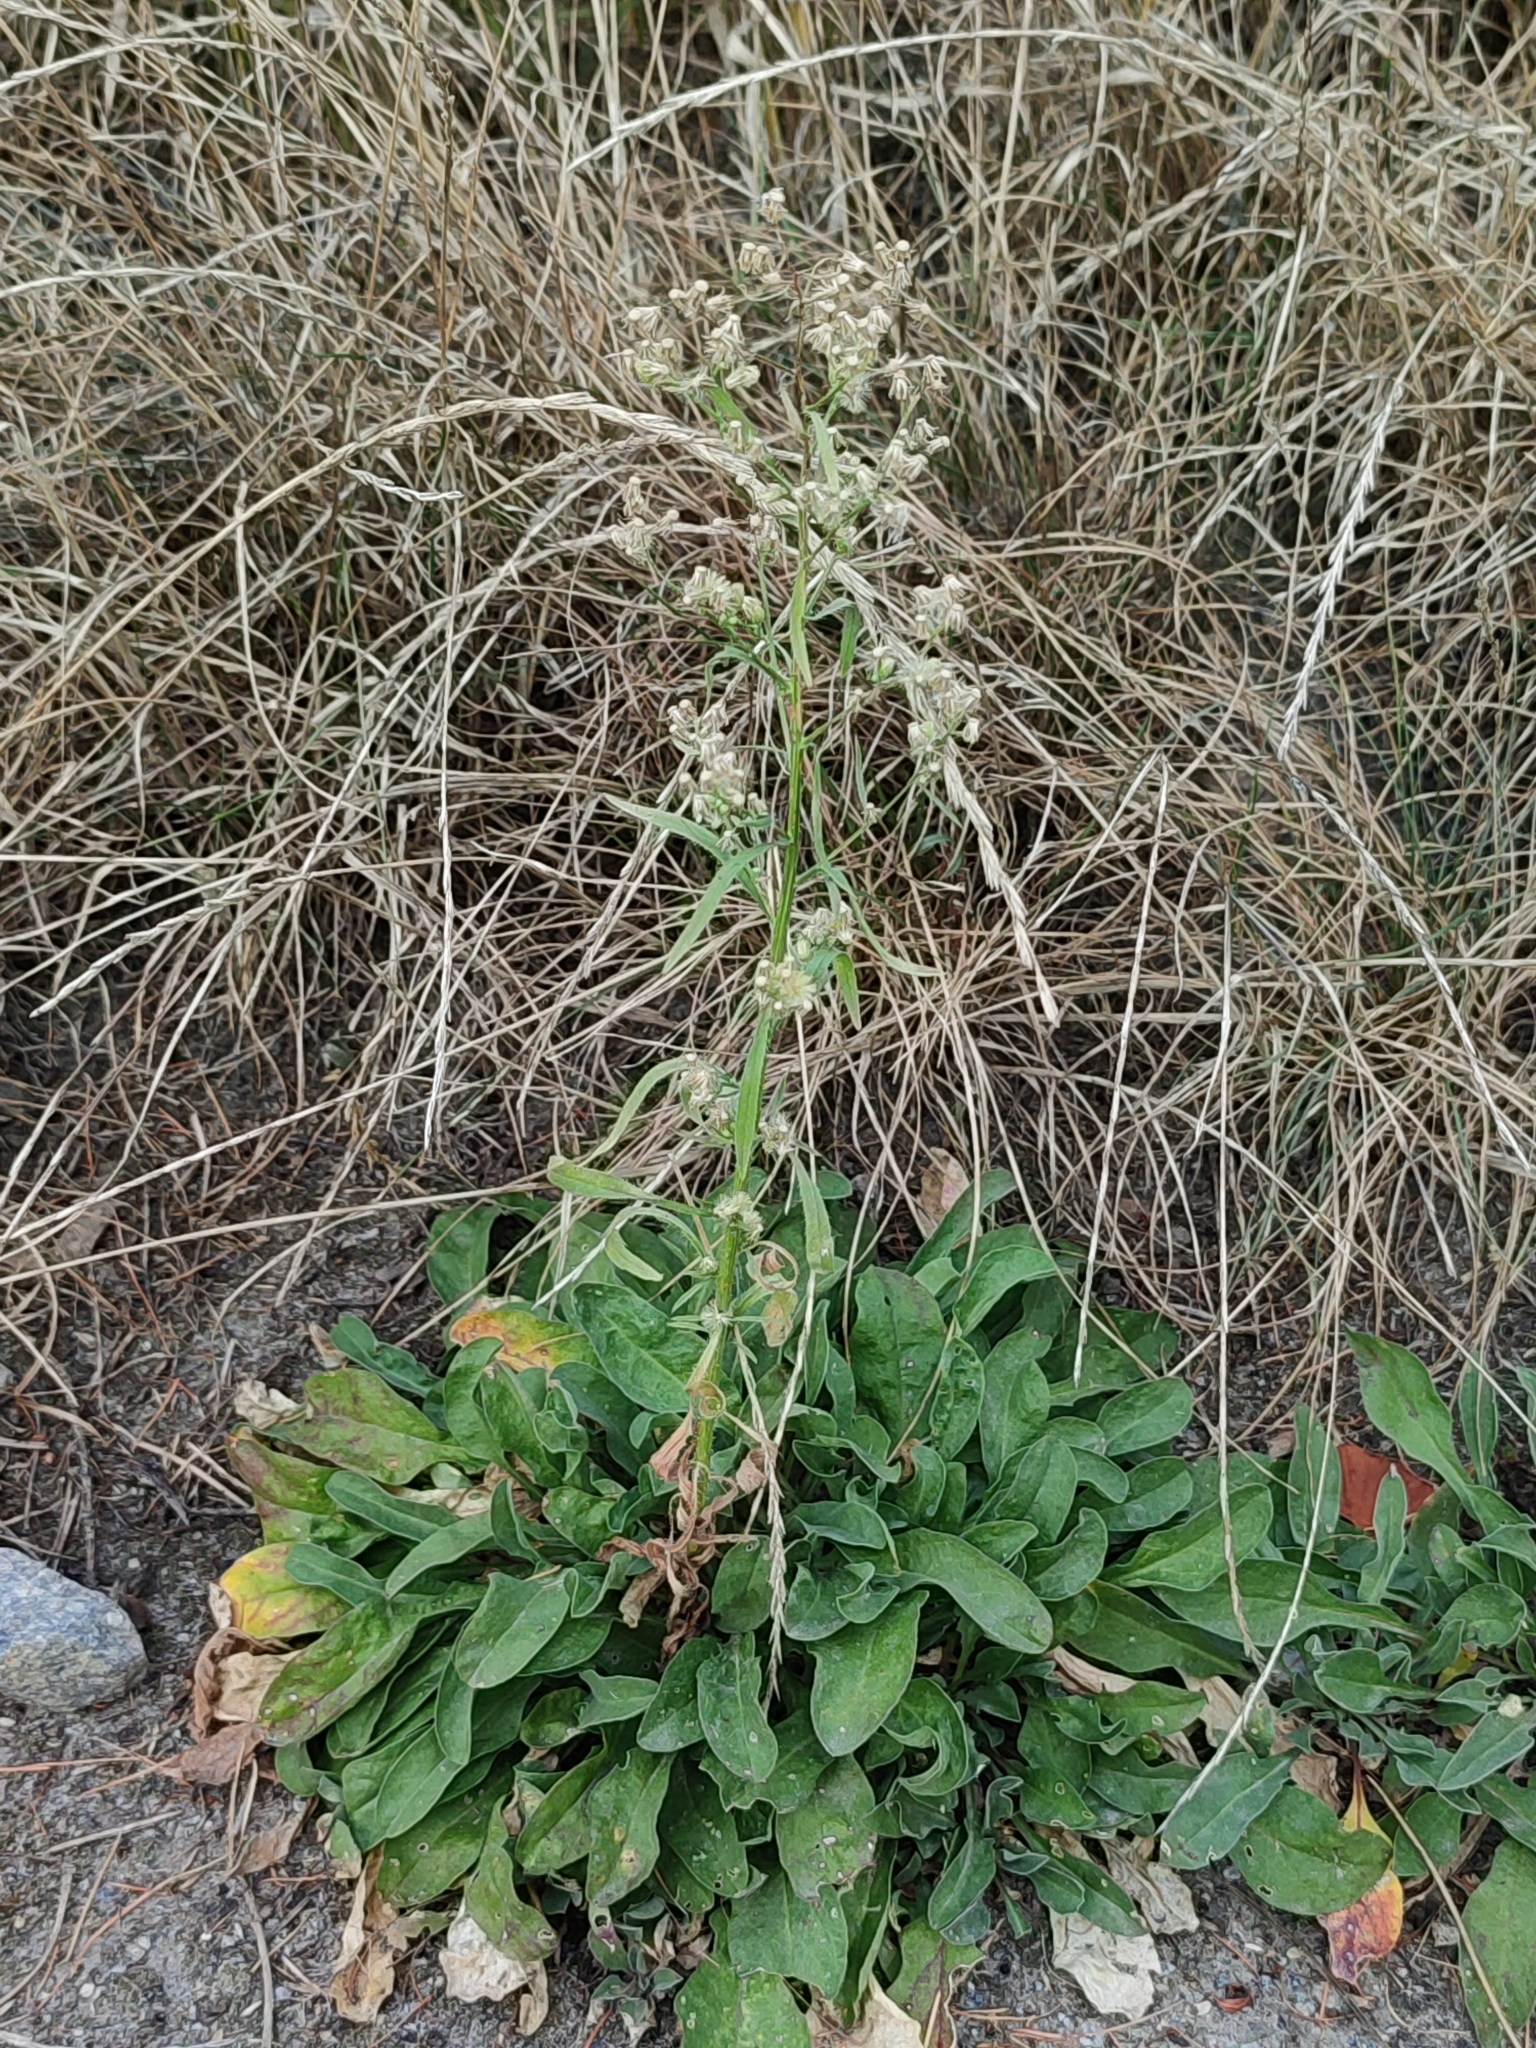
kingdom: Plantae
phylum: Tracheophyta
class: Magnoliopsida
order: Asterales
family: Asteraceae
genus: Erigeron
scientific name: Erigeron canadensis
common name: Canadian fleabane
